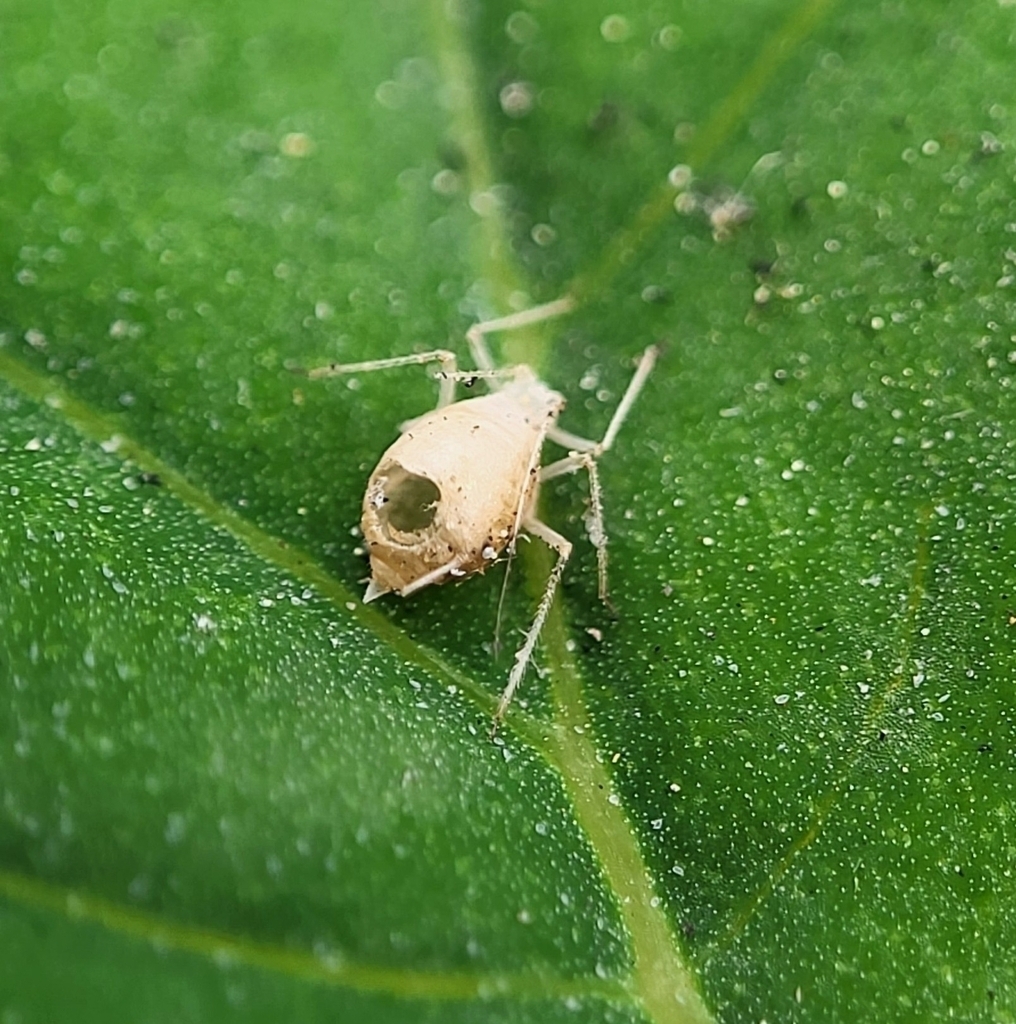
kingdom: Animalia
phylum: Arthropoda
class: Insecta
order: Hemiptera
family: Aphididae
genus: Aphis
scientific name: Aphis craccivora
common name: Cowpea aphid
